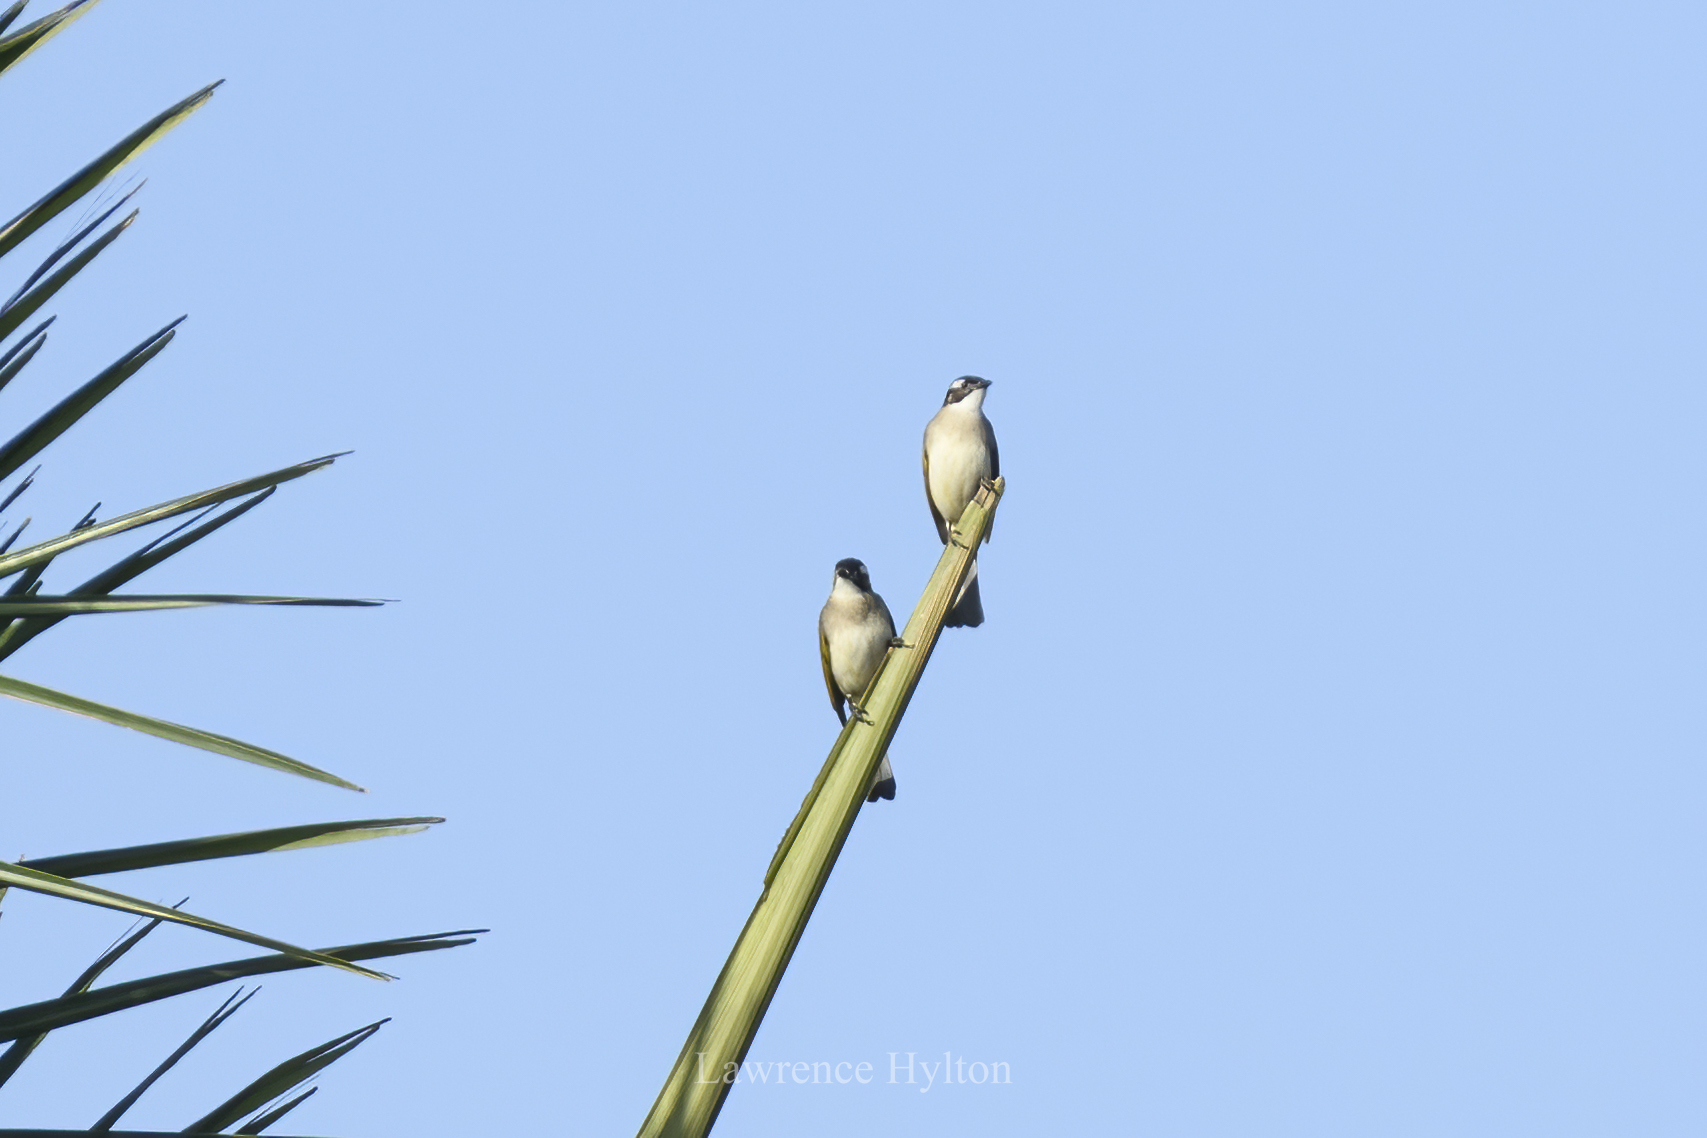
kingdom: Animalia
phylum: Chordata
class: Aves
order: Passeriformes
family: Pycnonotidae
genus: Pycnonotus
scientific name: Pycnonotus sinensis
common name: Light-vented bulbul
